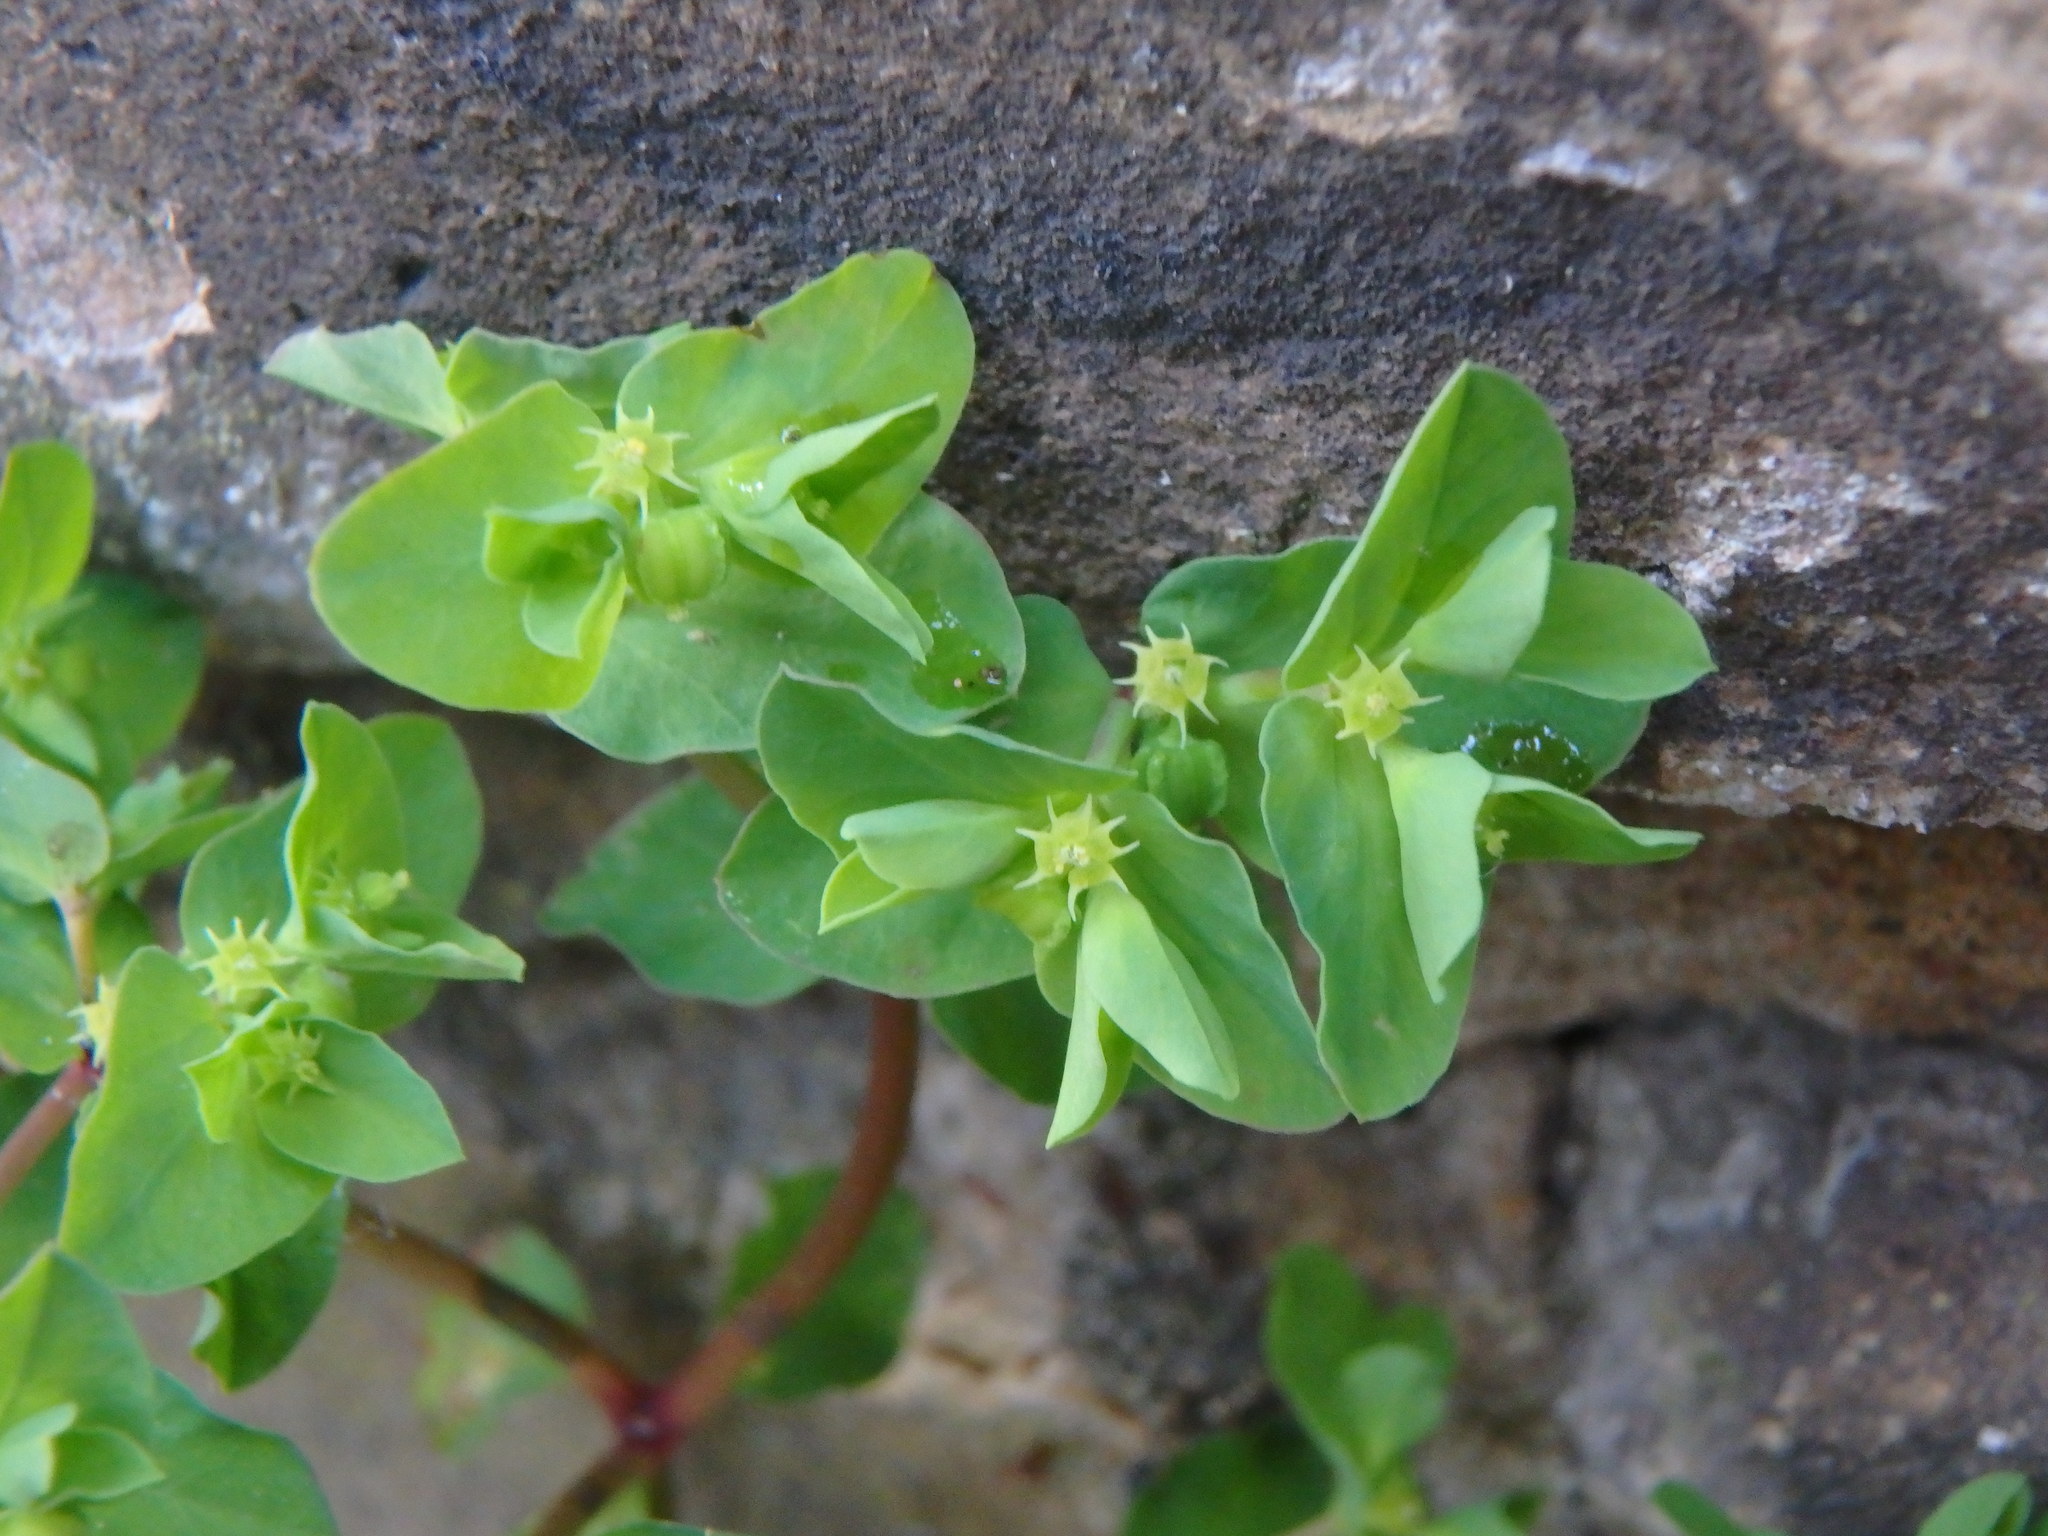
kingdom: Plantae
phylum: Tracheophyta
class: Magnoliopsida
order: Malpighiales
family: Euphorbiaceae
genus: Euphorbia
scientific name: Euphorbia peplus
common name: Petty spurge
